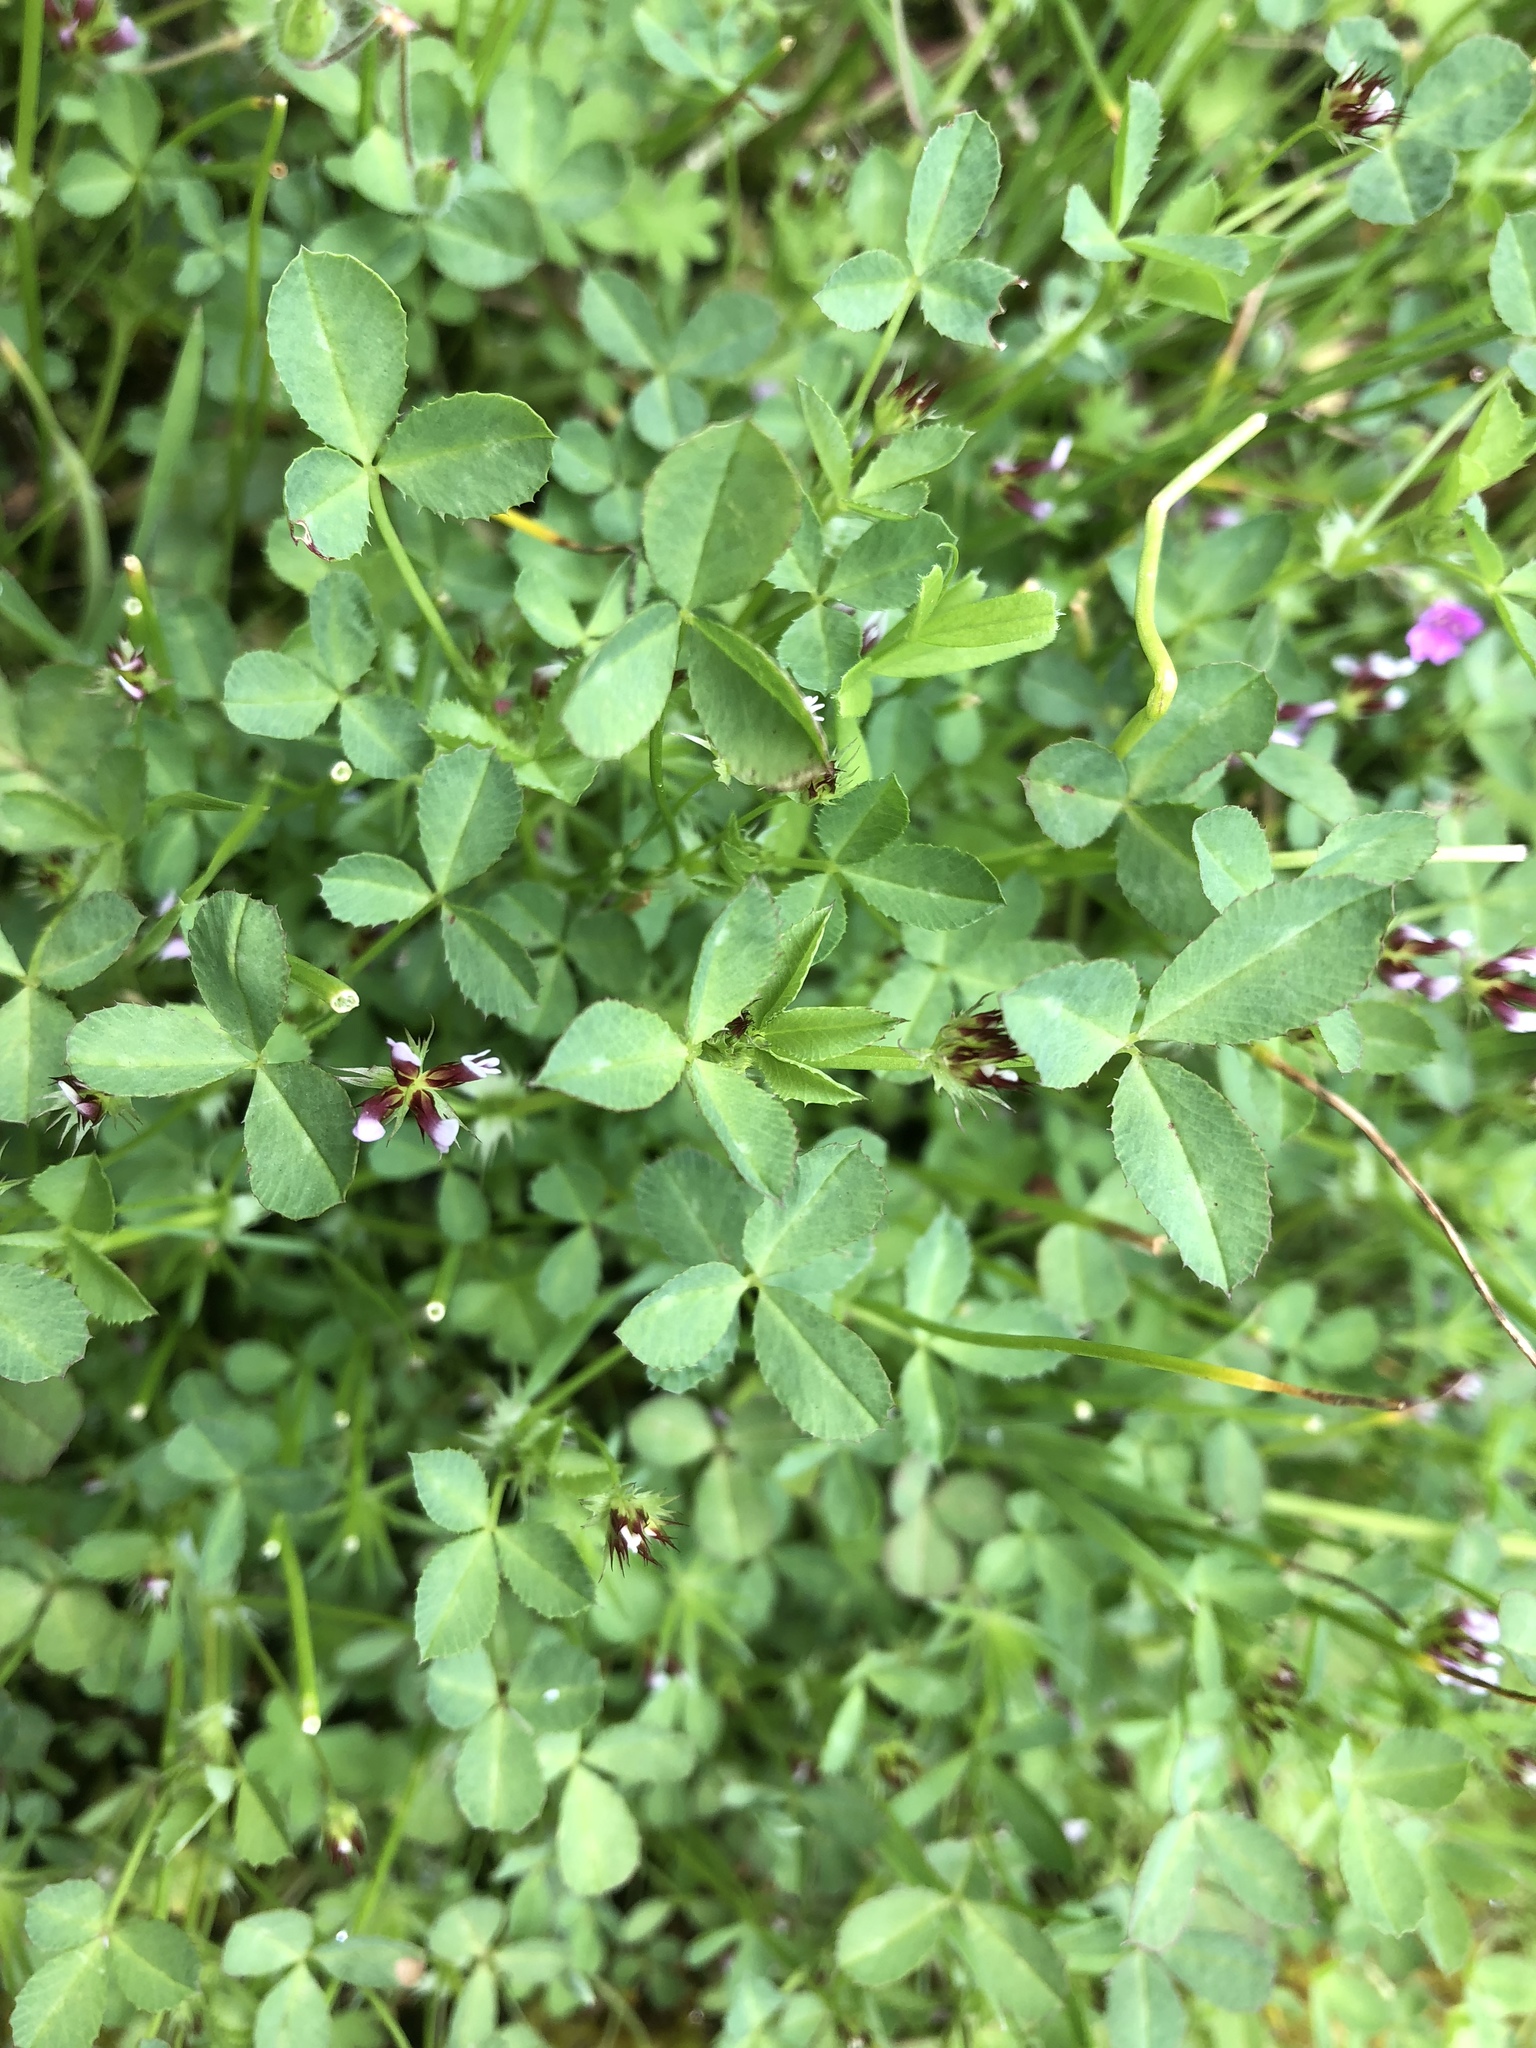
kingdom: Plantae
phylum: Tracheophyta
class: Magnoliopsida
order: Fabales
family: Fabaceae
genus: Trifolium
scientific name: Trifolium variegatum
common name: Whitetip clover
